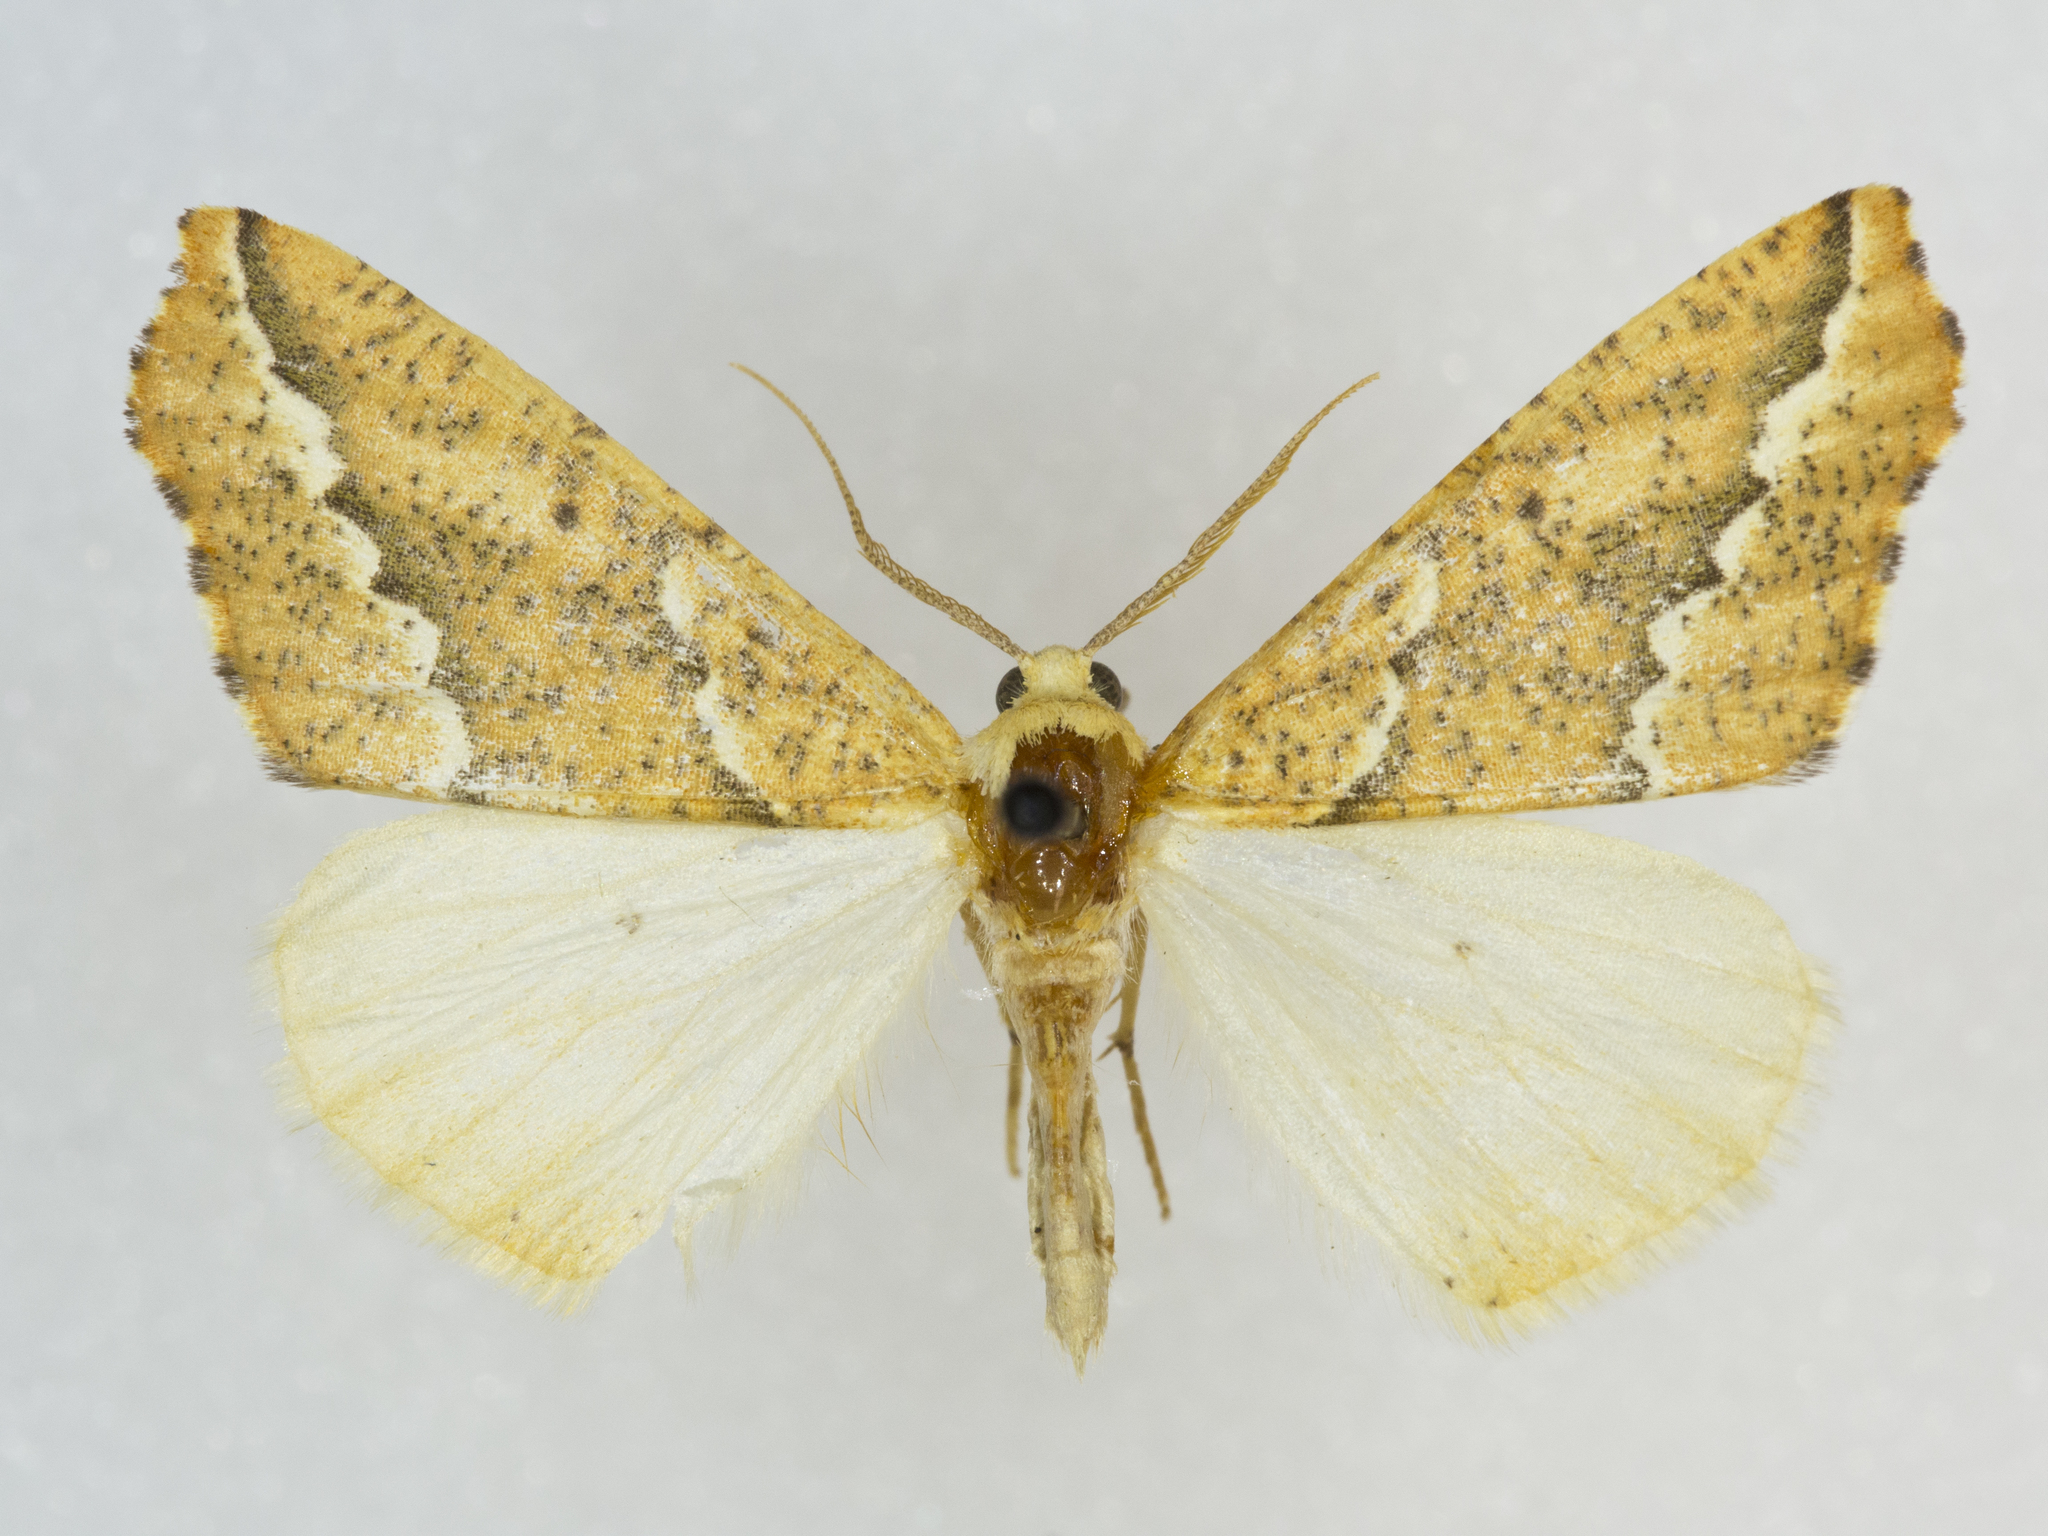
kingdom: Animalia
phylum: Arthropoda
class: Insecta
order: Lepidoptera
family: Geometridae
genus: Sicya
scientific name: Sicya morsicaria
